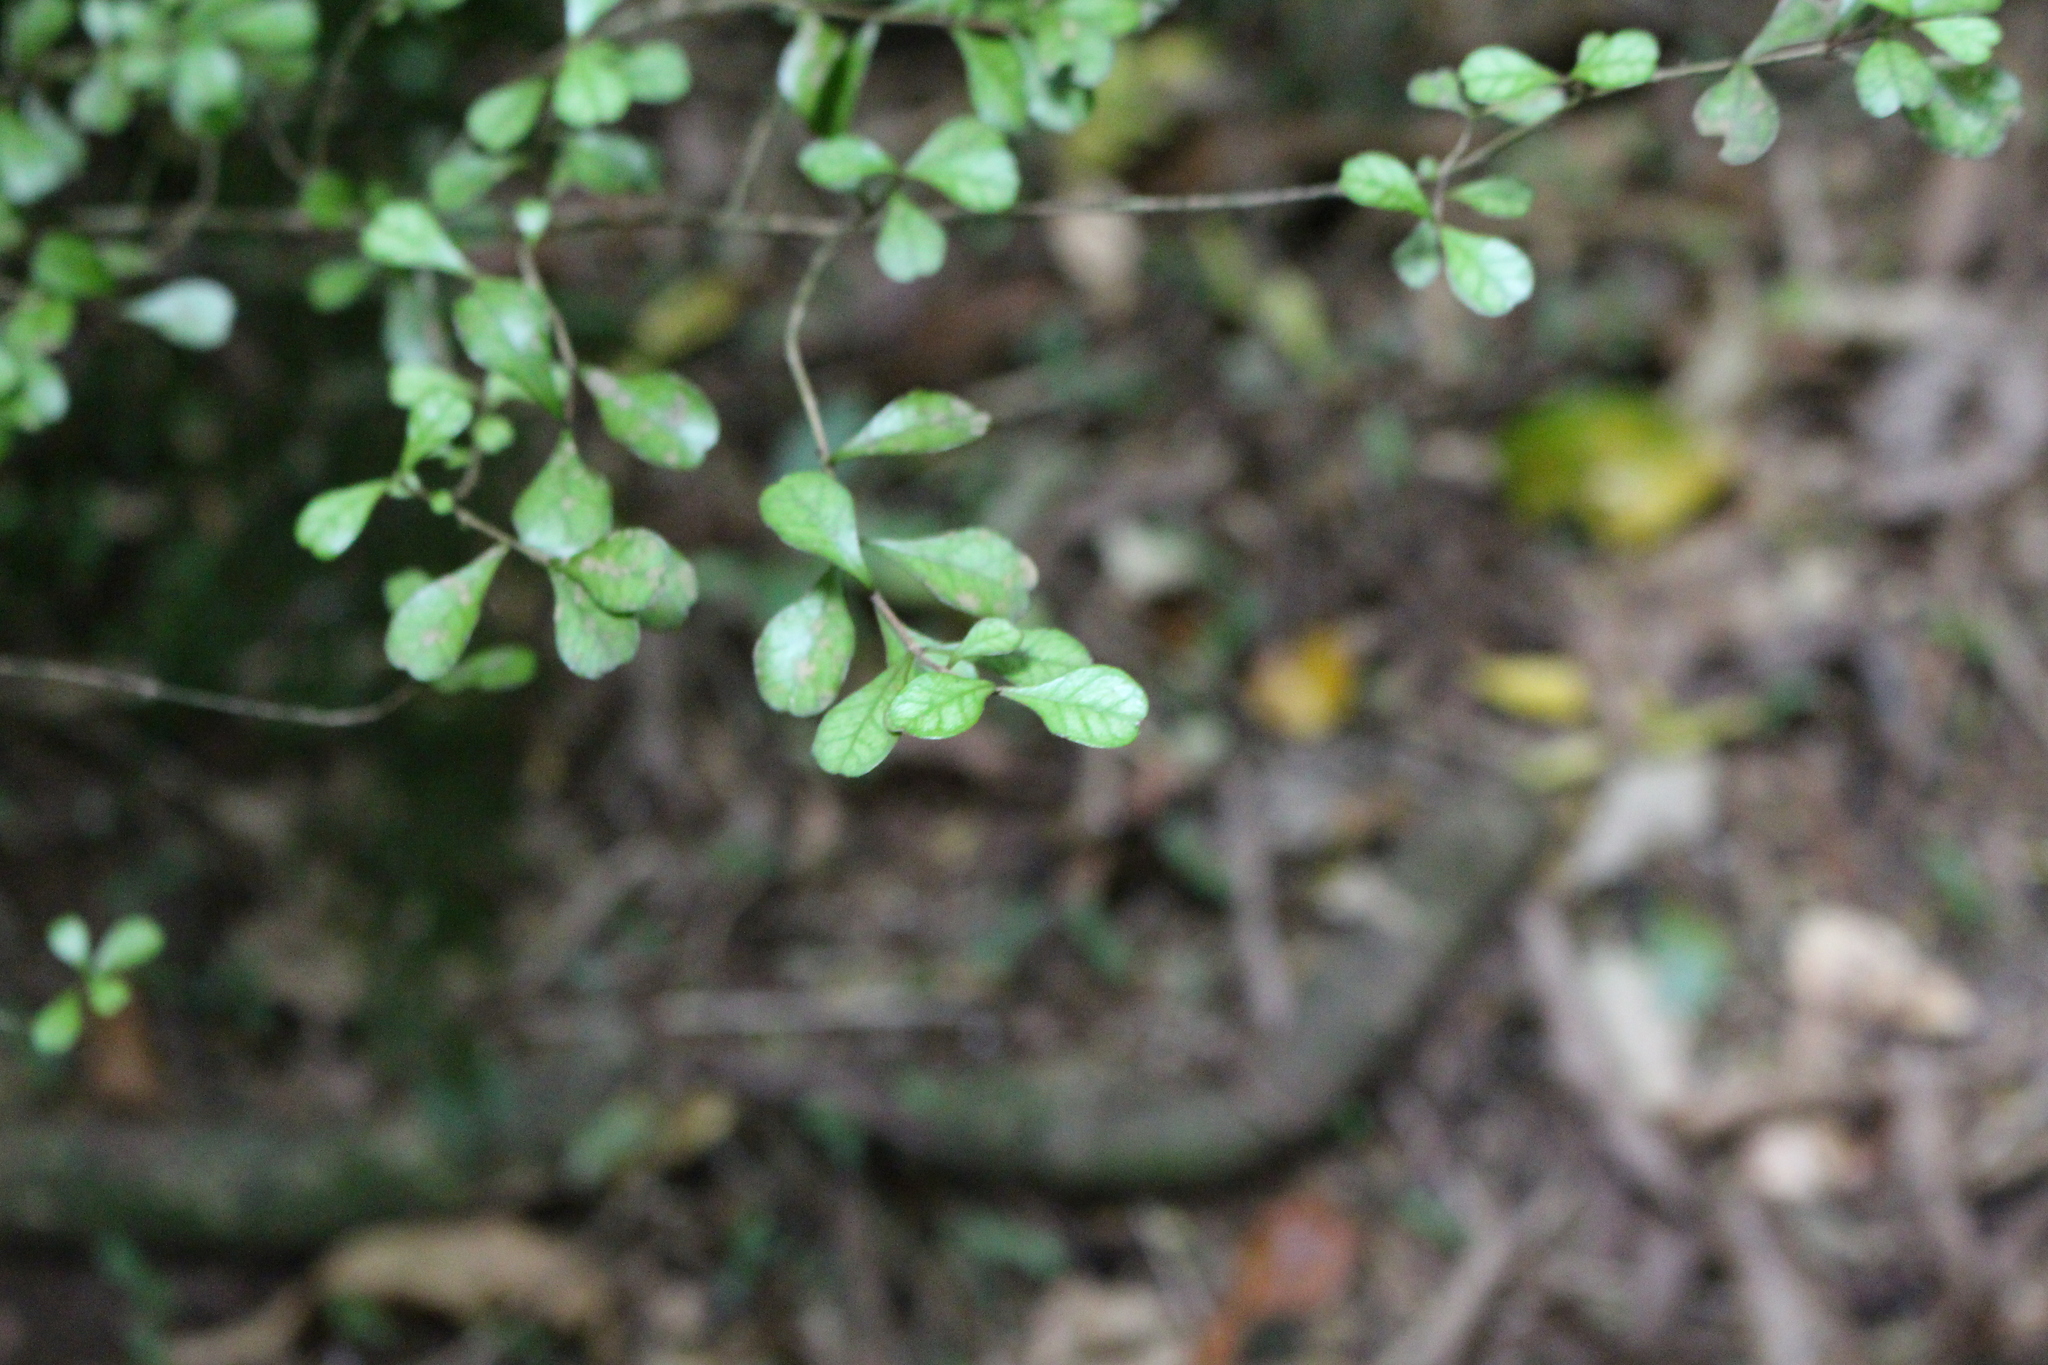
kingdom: Plantae
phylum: Tracheophyta
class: Magnoliopsida
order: Myrtales
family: Myrtaceae
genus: Lophomyrtus
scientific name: Lophomyrtus obcordata
